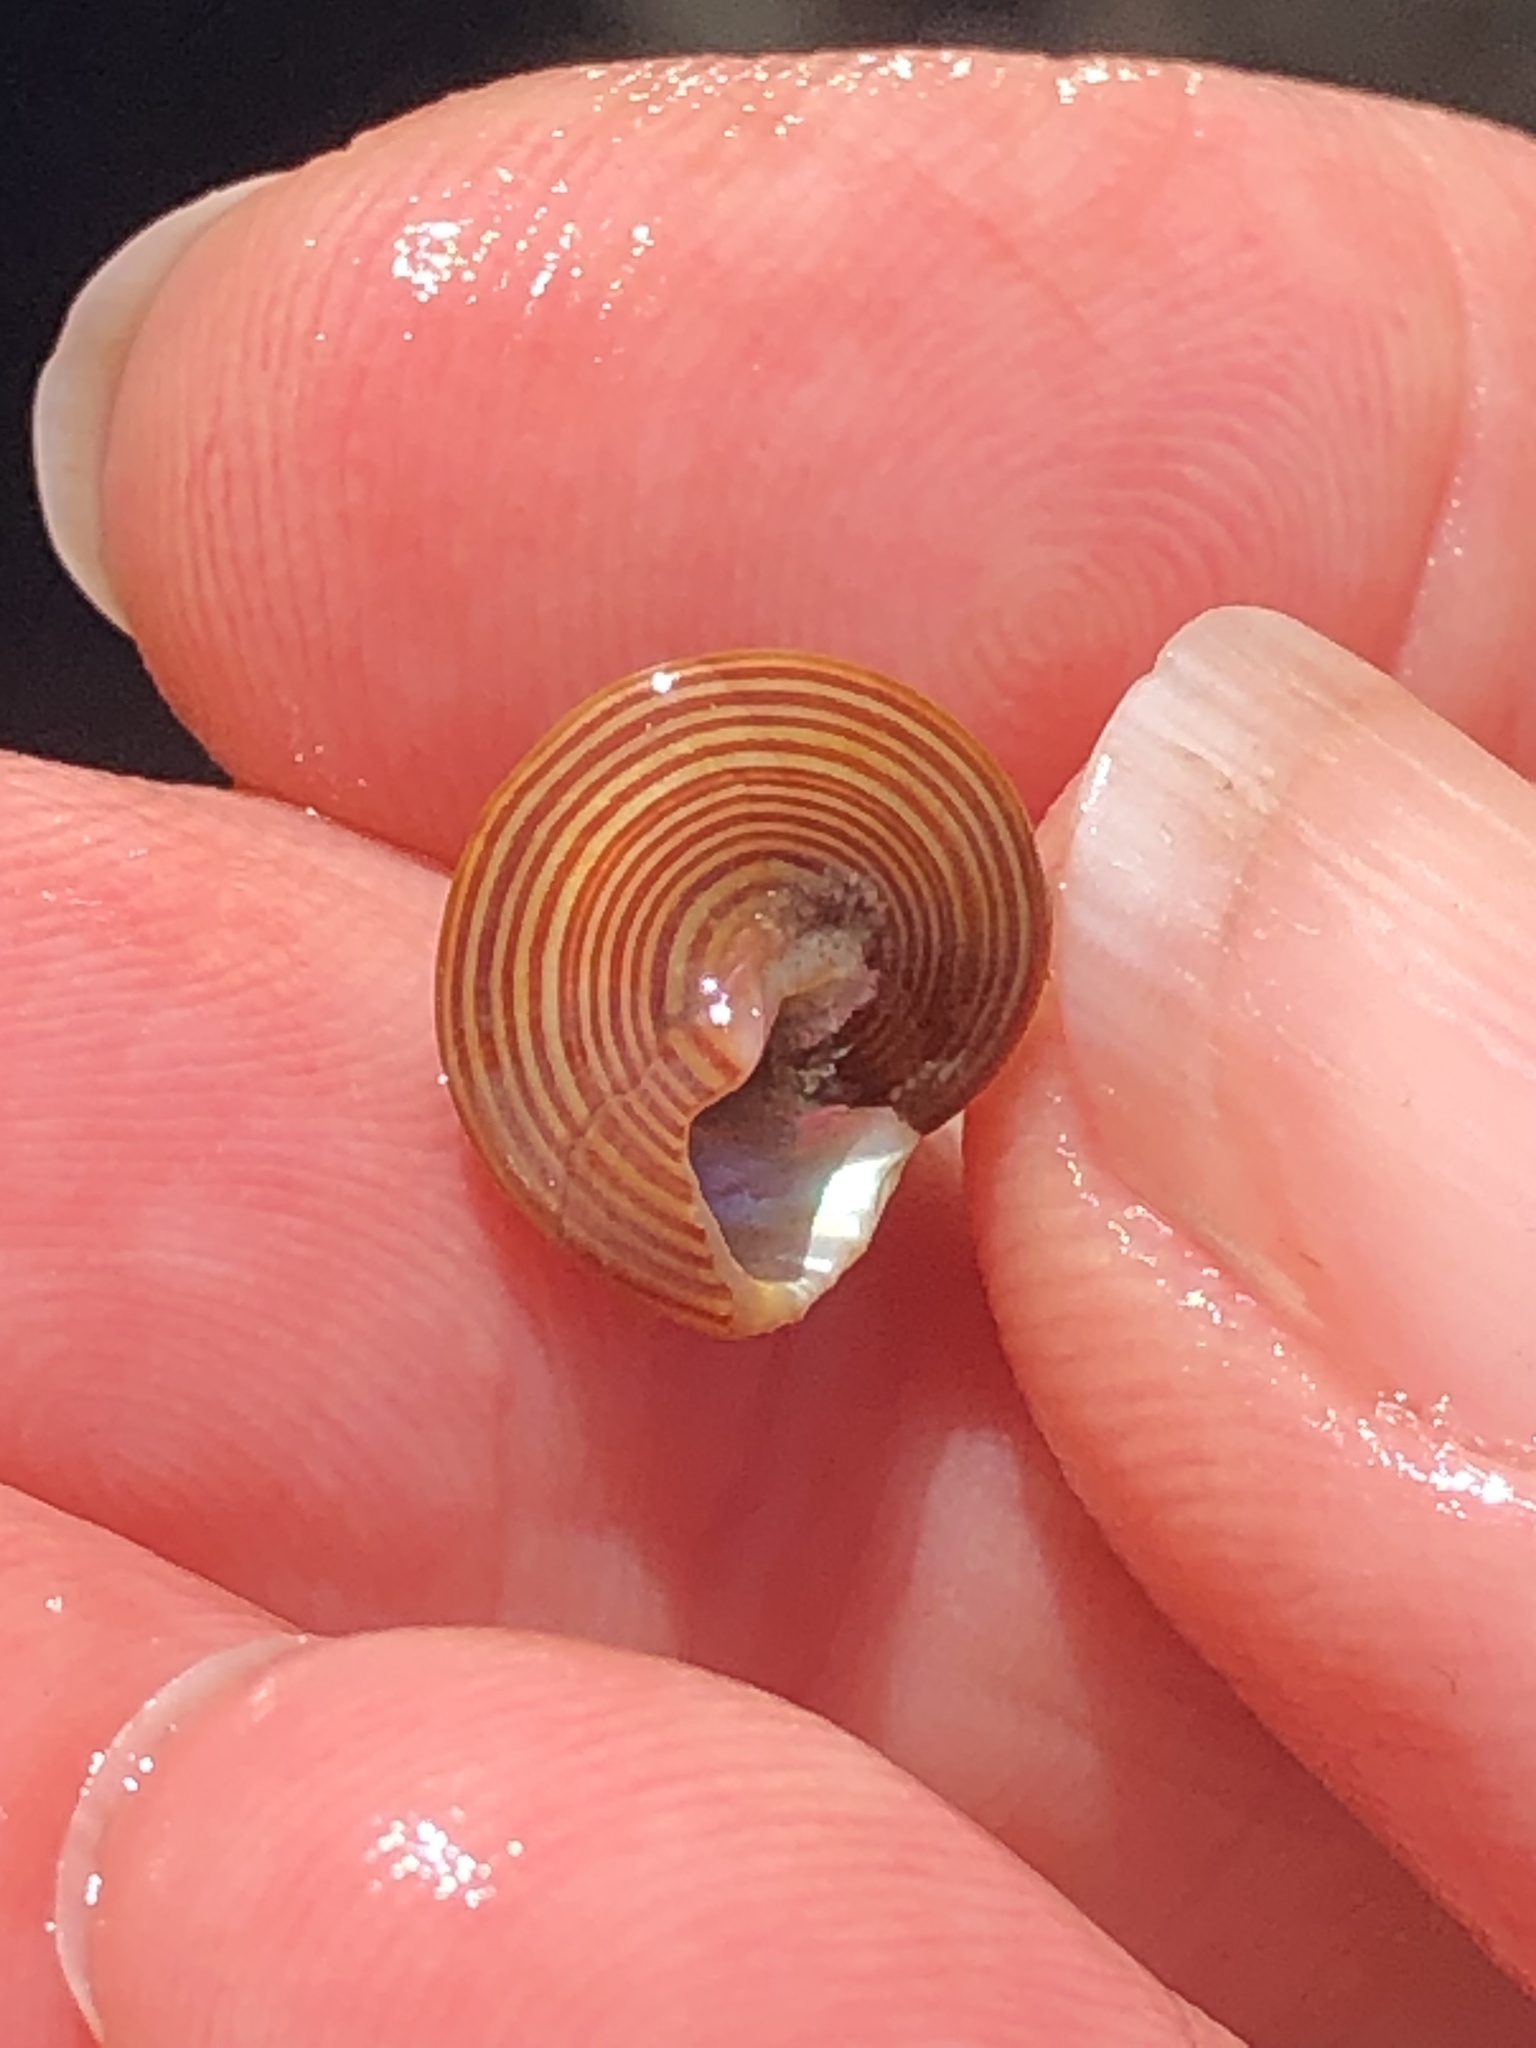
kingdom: Animalia
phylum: Mollusca
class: Gastropoda
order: Trochida
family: Calliostomatidae
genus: Calliostoma
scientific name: Calliostoma ligatum
